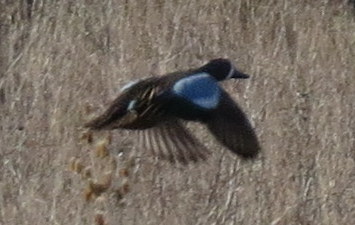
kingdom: Animalia
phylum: Chordata
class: Aves
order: Anseriformes
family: Anatidae
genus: Spatula
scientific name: Spatula discors
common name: Blue-winged teal
